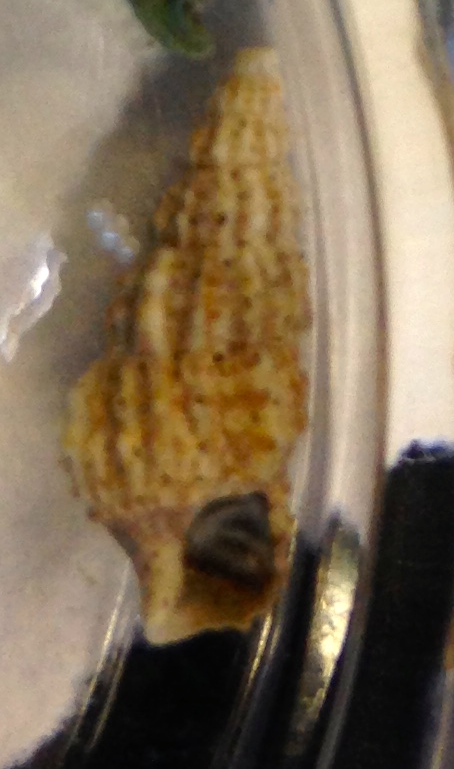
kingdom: Animalia
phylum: Mollusca
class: Gastropoda
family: Cerithiidae
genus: Cerithium
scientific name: Cerithium muscarum
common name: Fly-specked cerith
